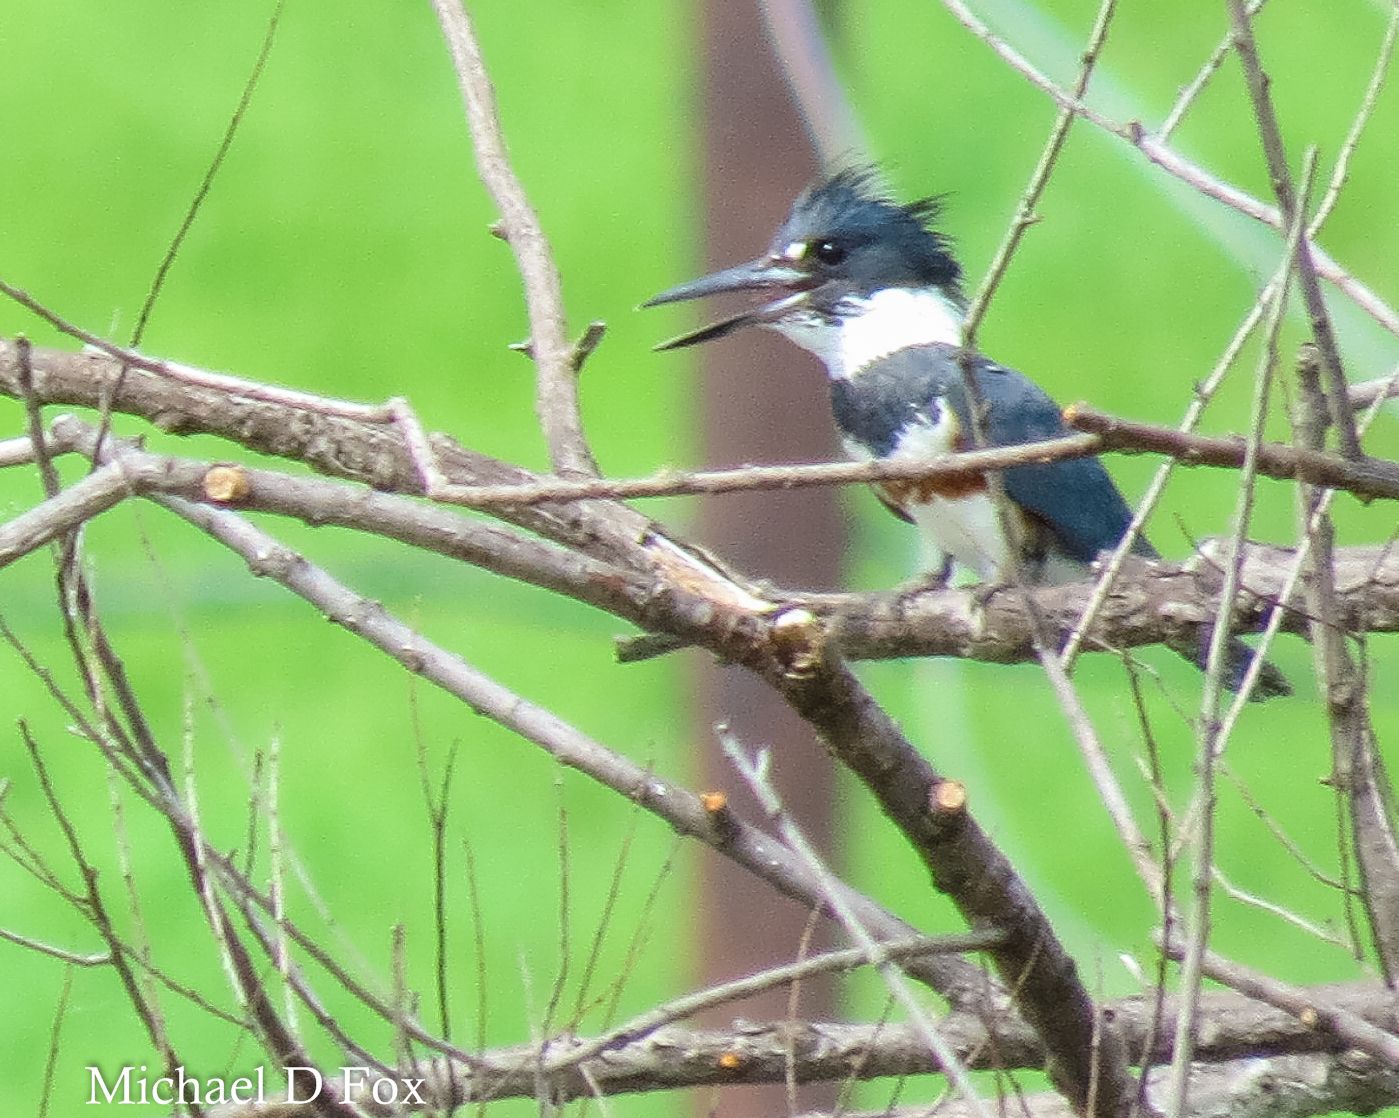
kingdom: Animalia
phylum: Chordata
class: Aves
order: Coraciiformes
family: Alcedinidae
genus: Megaceryle
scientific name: Megaceryle alcyon
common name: Belted kingfisher
